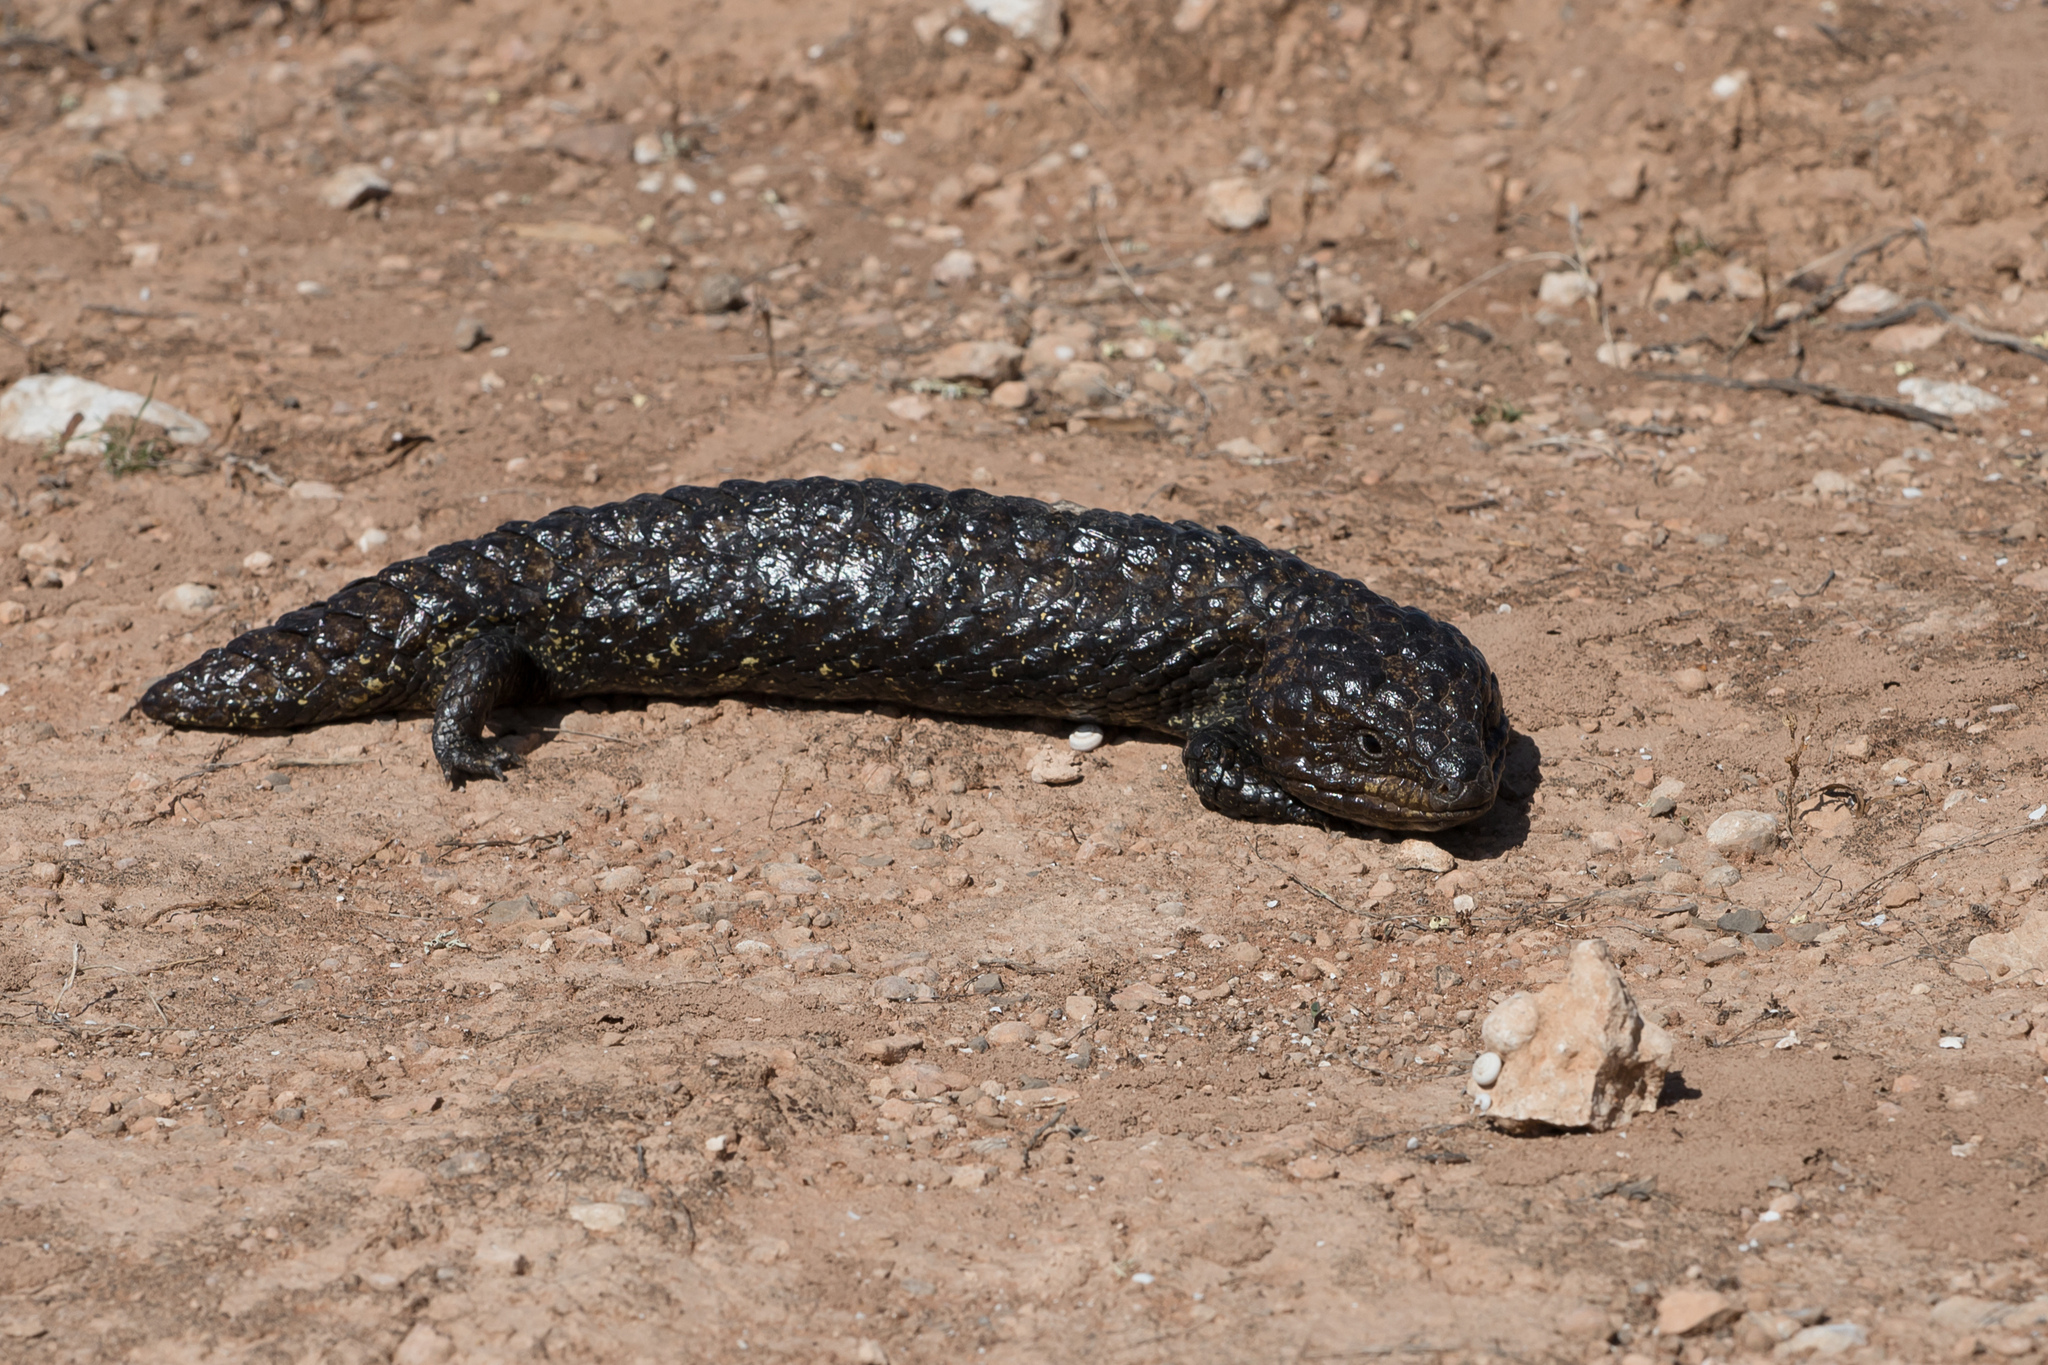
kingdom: Animalia
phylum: Chordata
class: Squamata
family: Scincidae
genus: Tiliqua
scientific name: Tiliqua rugosa
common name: Pinecone lizard
